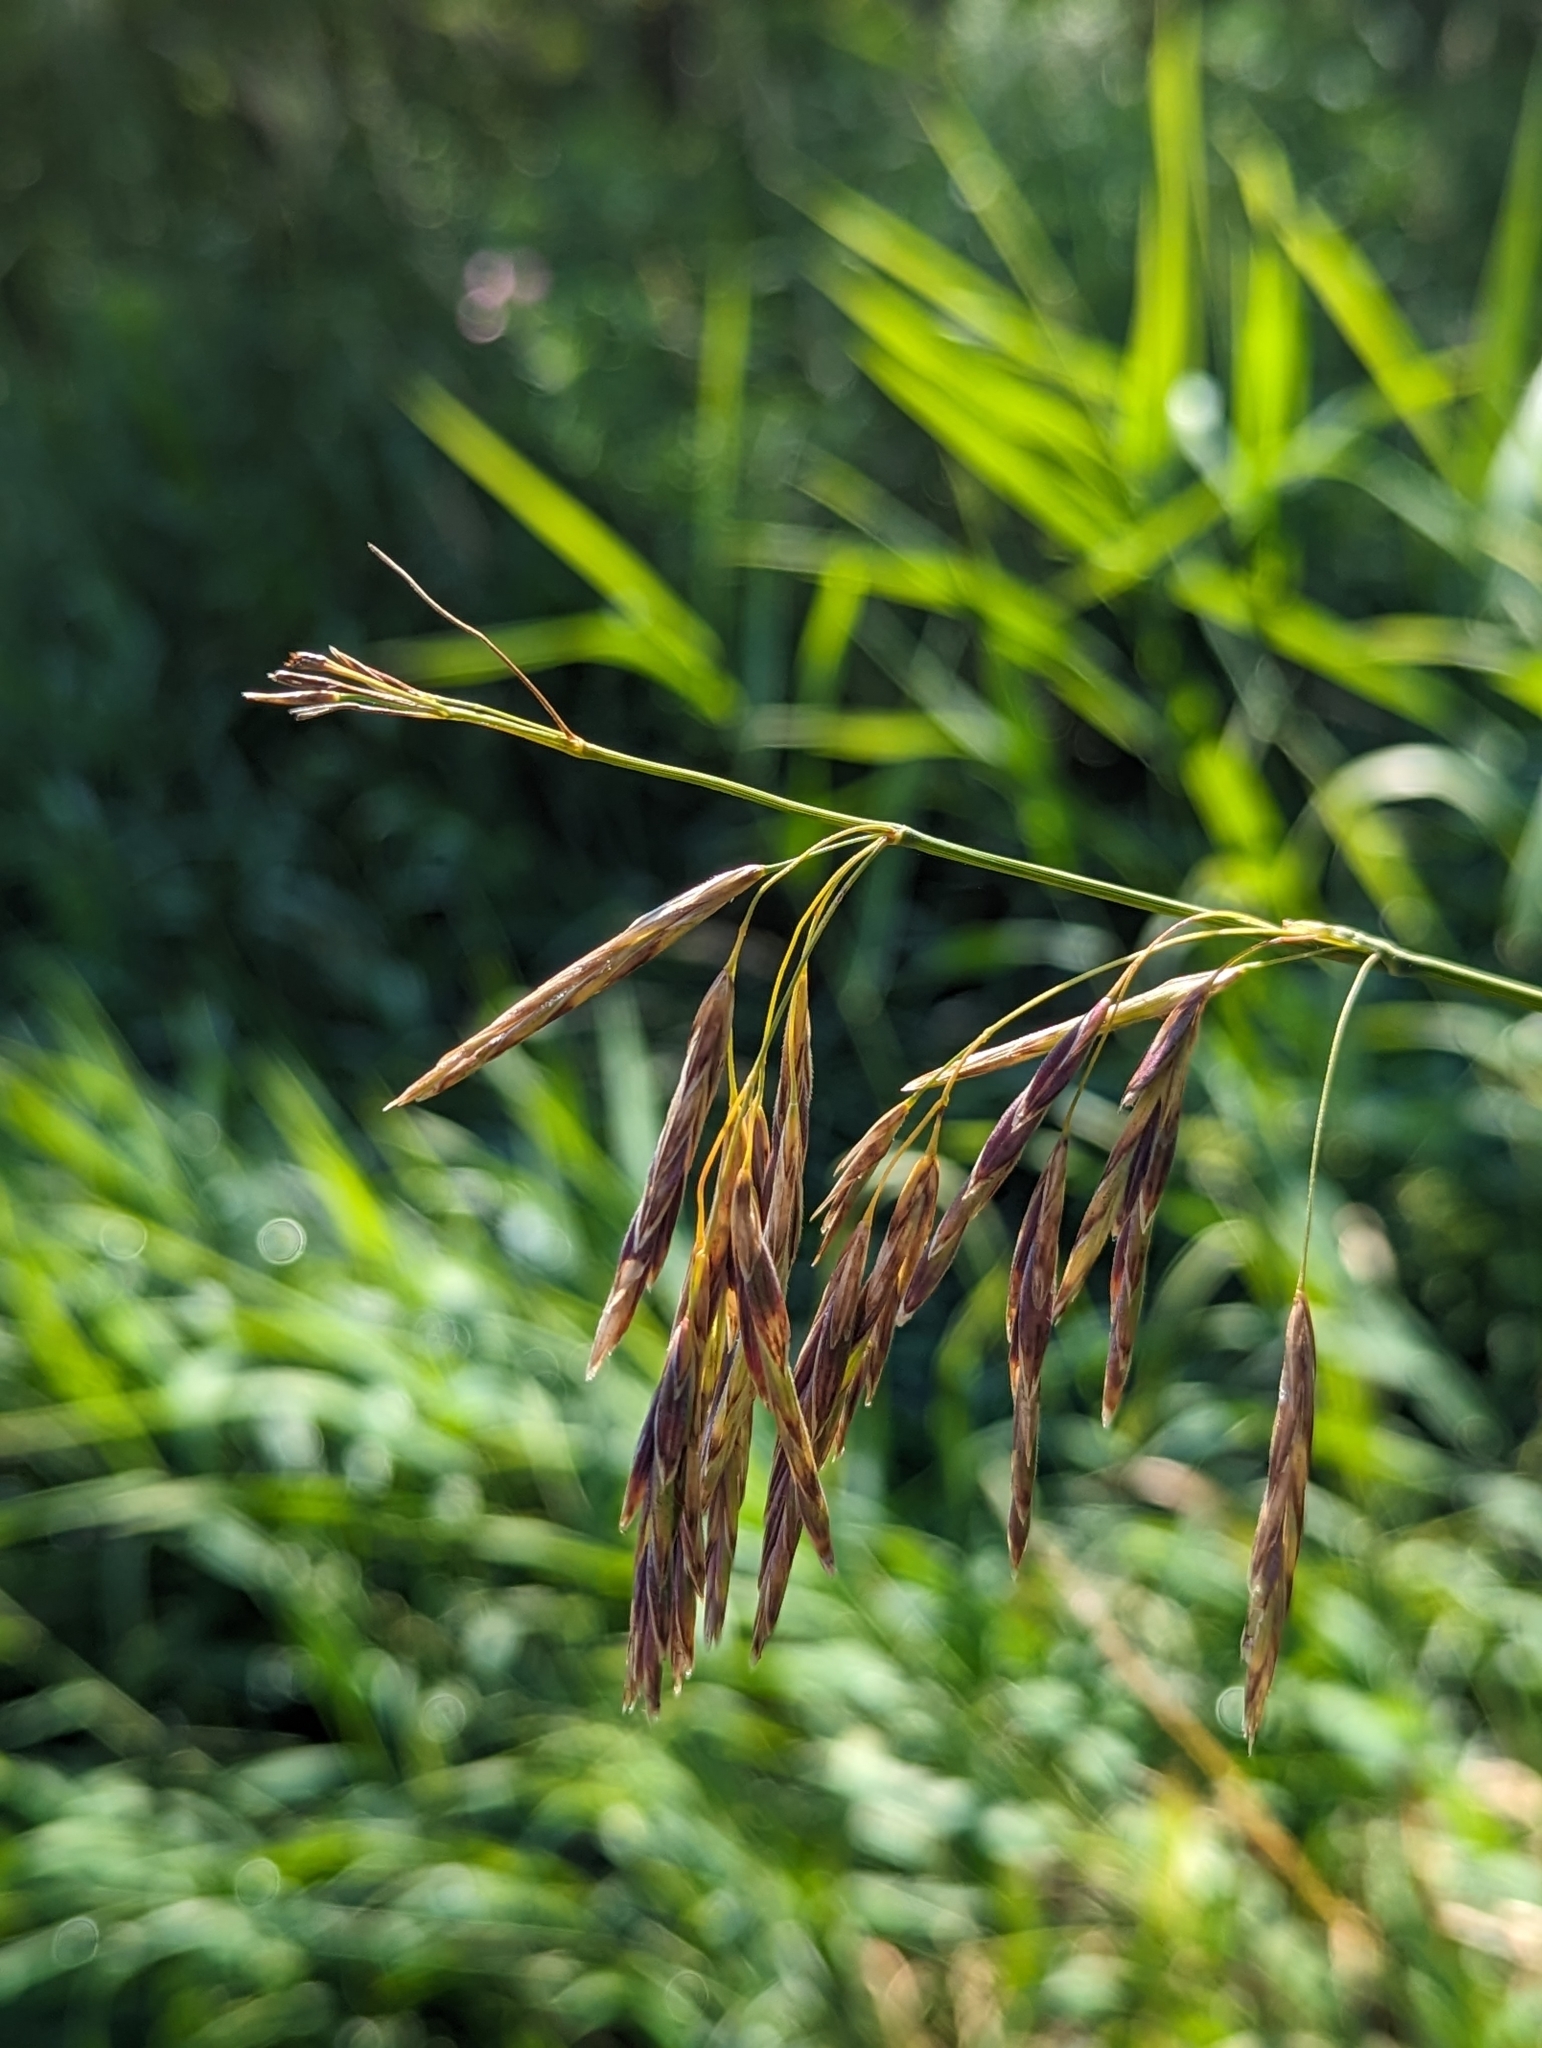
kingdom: Plantae
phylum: Tracheophyta
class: Liliopsida
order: Poales
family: Poaceae
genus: Bromus
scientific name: Bromus inermis
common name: Smooth brome
